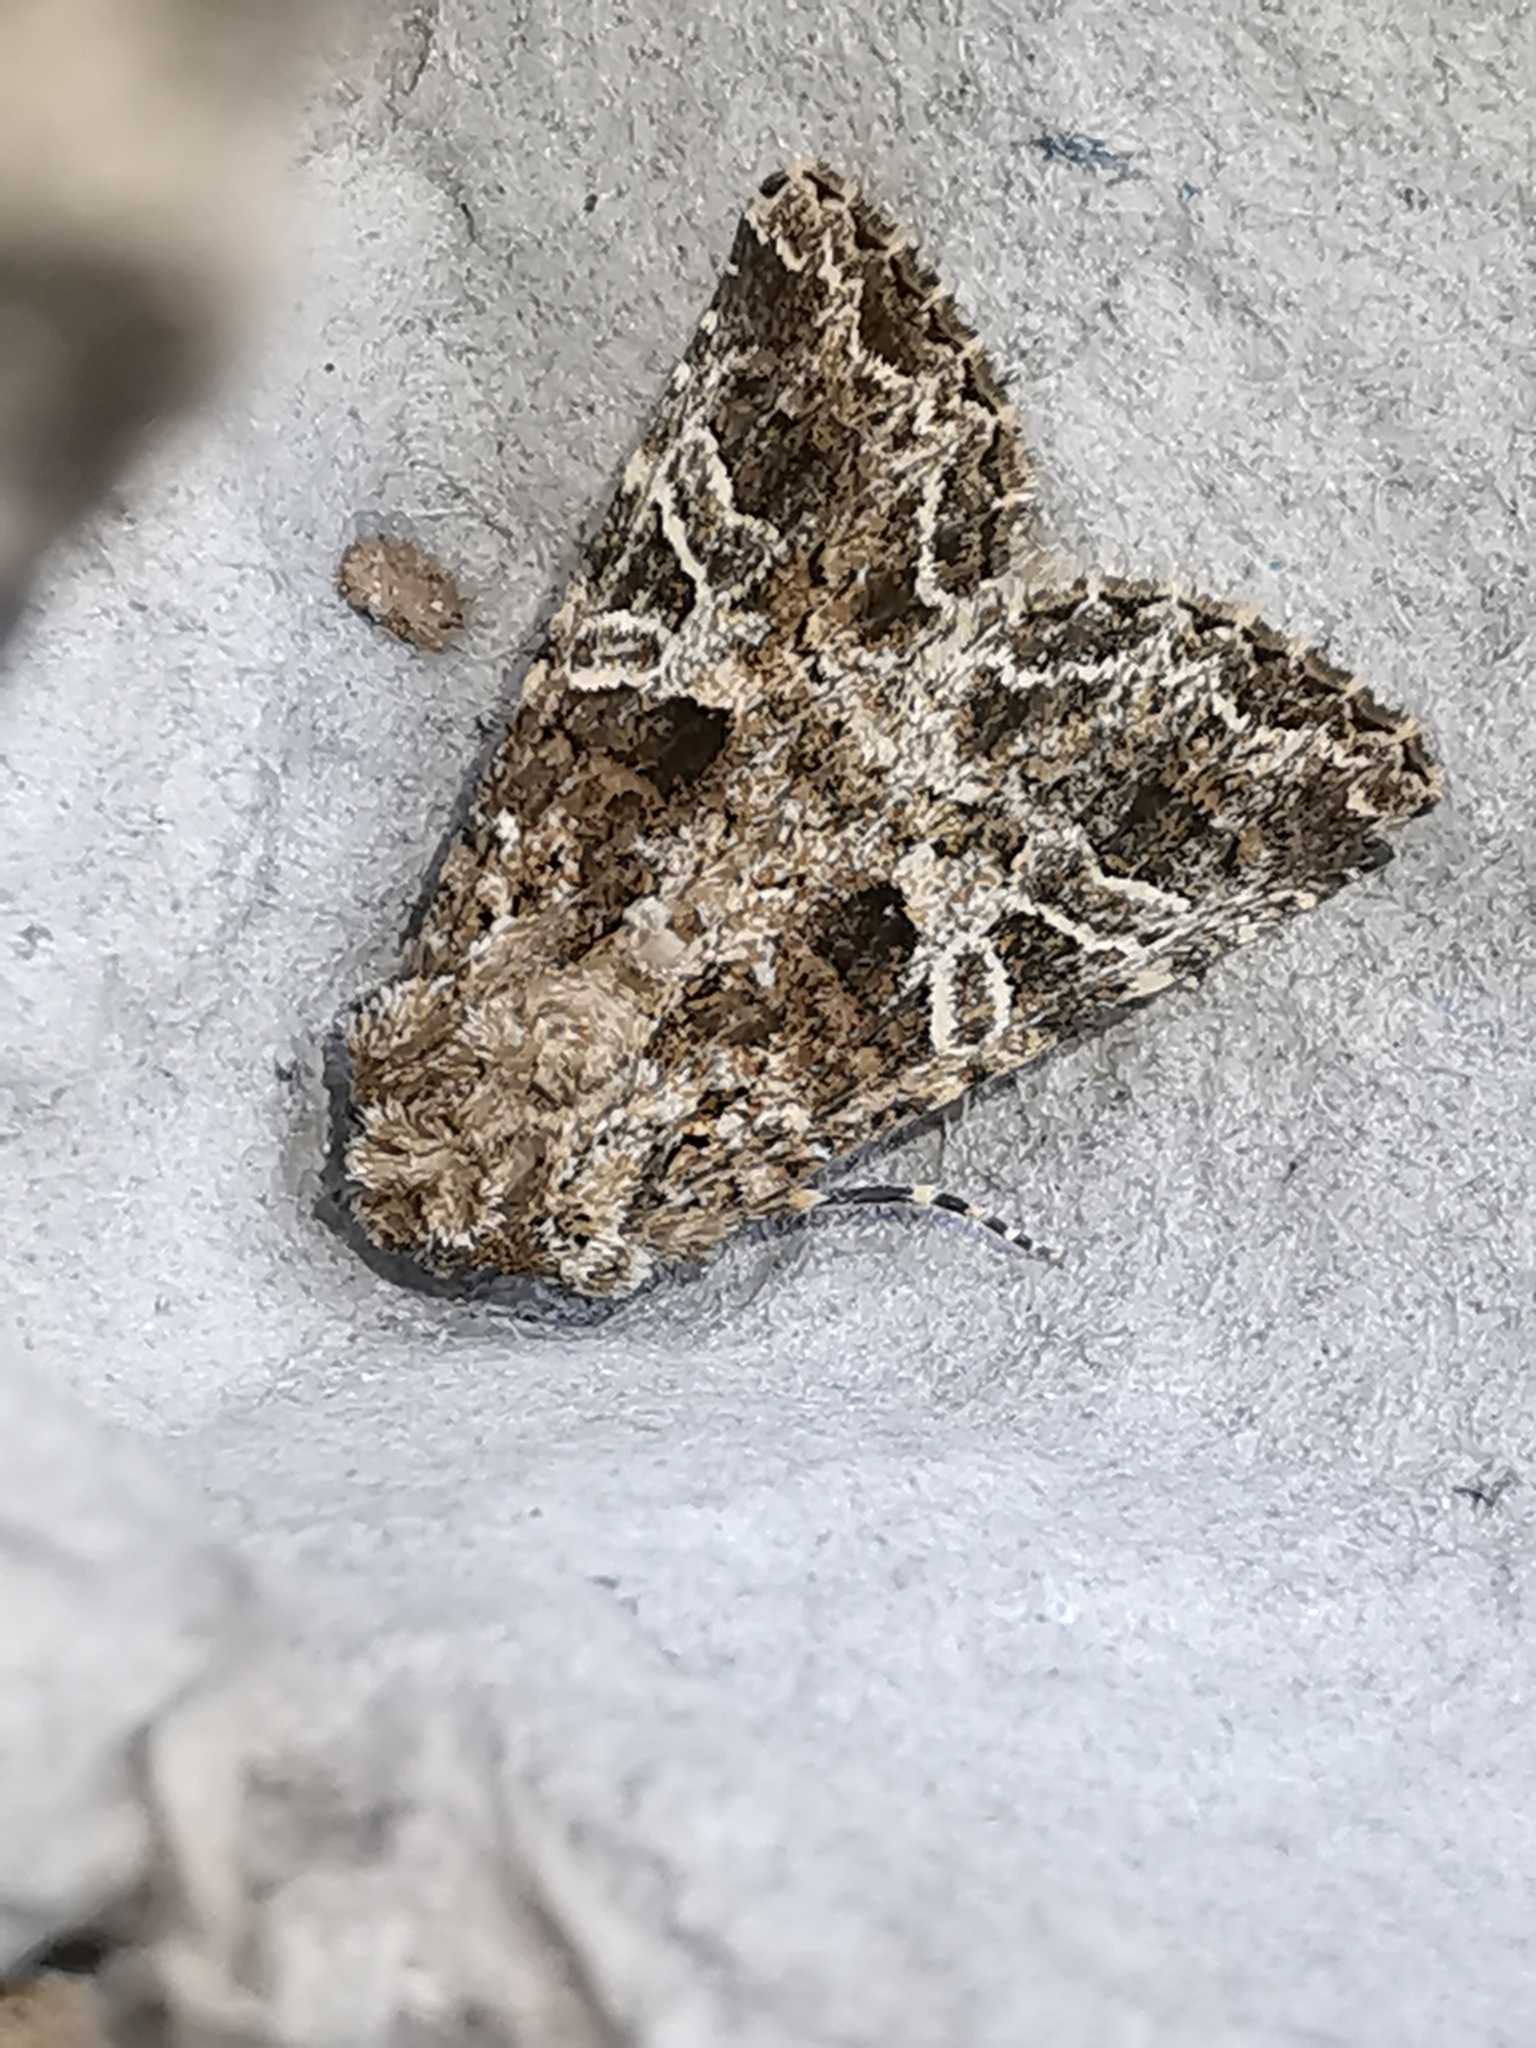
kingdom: Animalia
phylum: Arthropoda
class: Insecta
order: Lepidoptera
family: Noctuidae
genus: Hadena
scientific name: Hadena bicruris
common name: Lychnis
